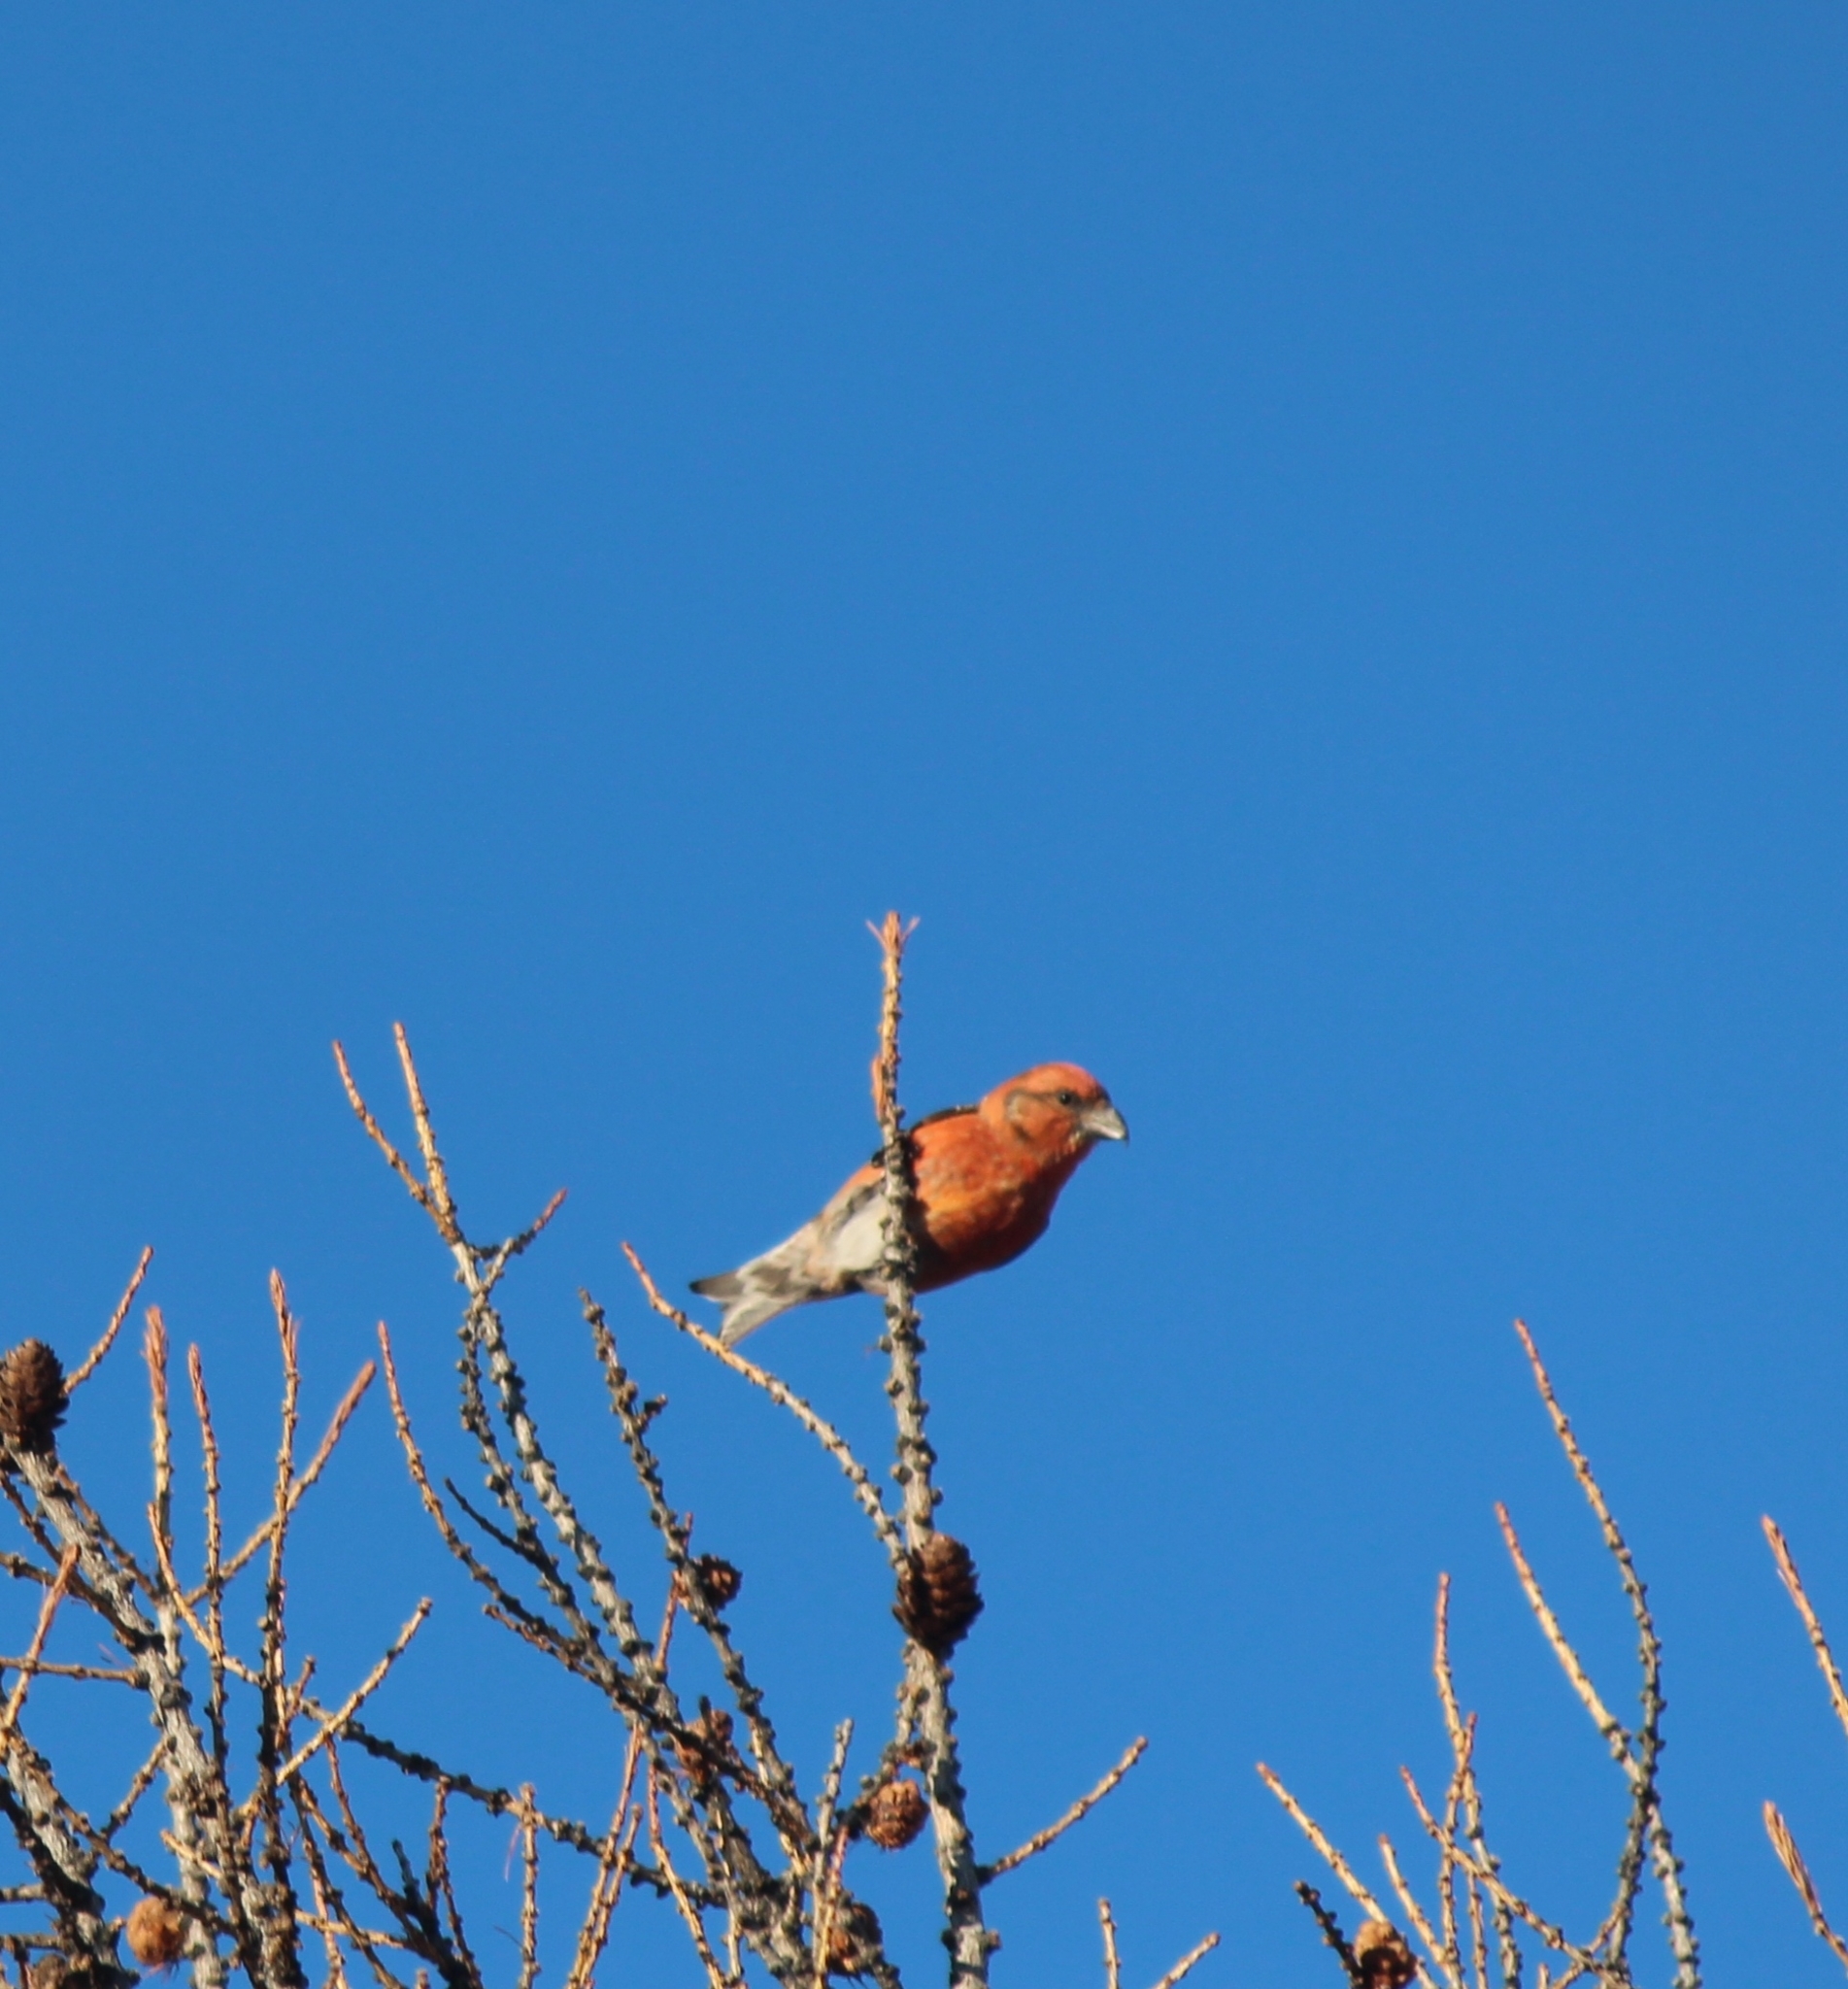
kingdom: Animalia
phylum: Chordata
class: Aves
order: Passeriformes
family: Fringillidae
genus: Loxia
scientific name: Loxia curvirostra
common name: Red crossbill
